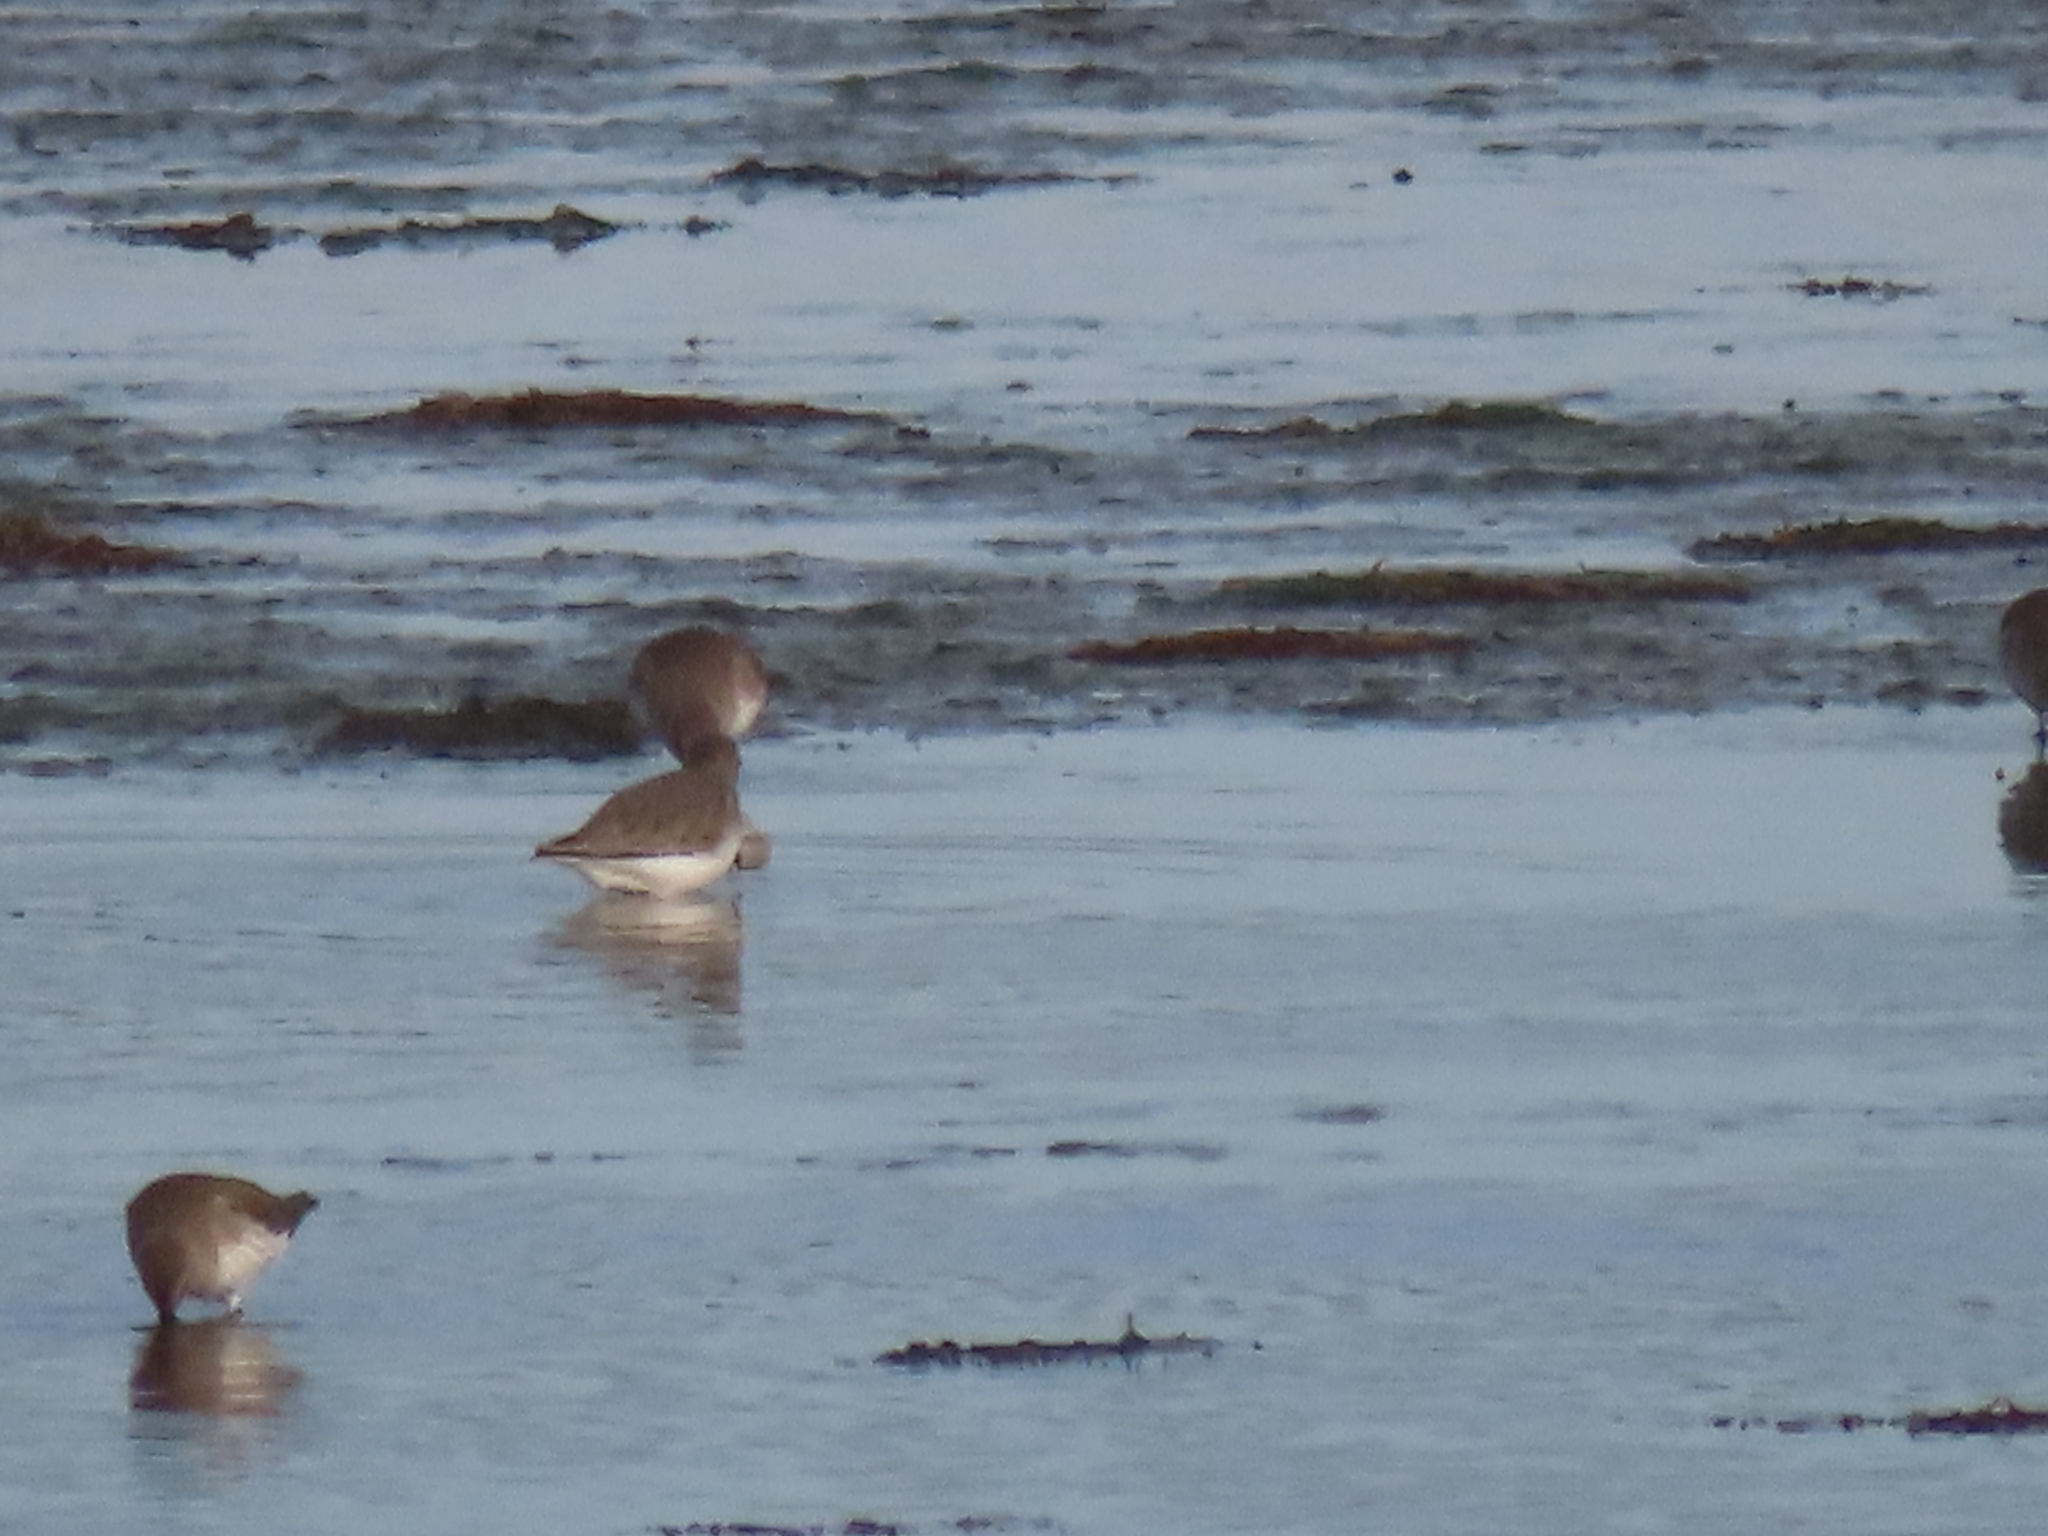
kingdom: Animalia
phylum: Chordata
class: Aves
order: Charadriiformes
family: Scolopacidae
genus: Calidris
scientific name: Calidris alpina
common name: Dunlin
